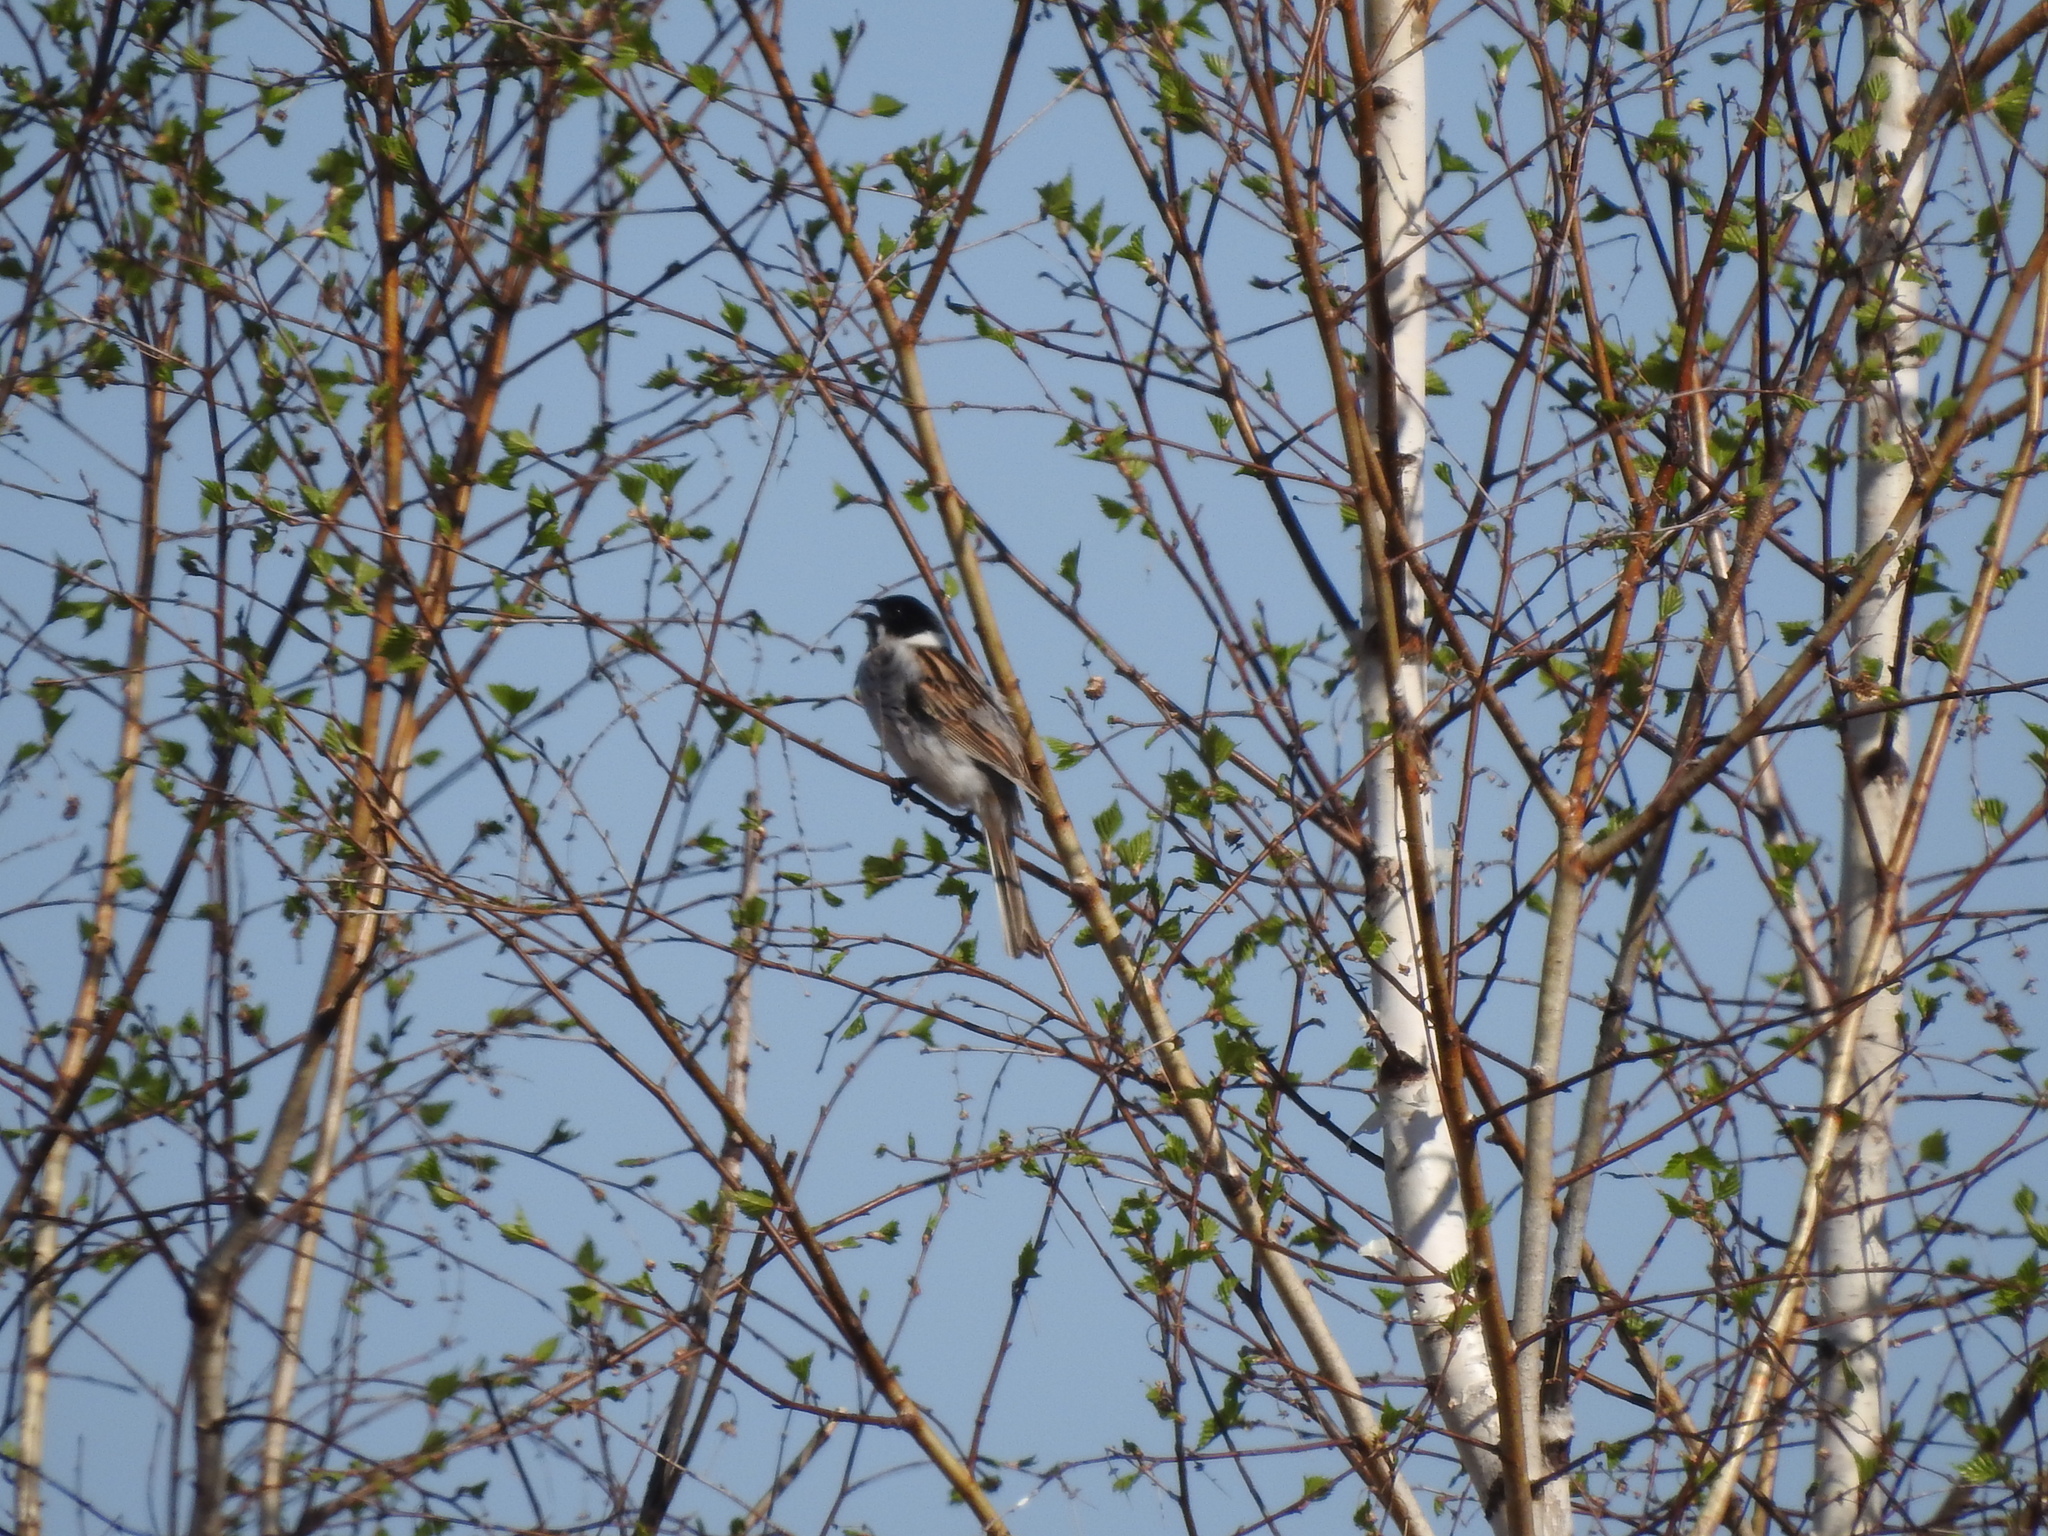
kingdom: Animalia
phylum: Chordata
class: Aves
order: Passeriformes
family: Emberizidae
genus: Emberiza
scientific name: Emberiza schoeniclus
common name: Reed bunting
